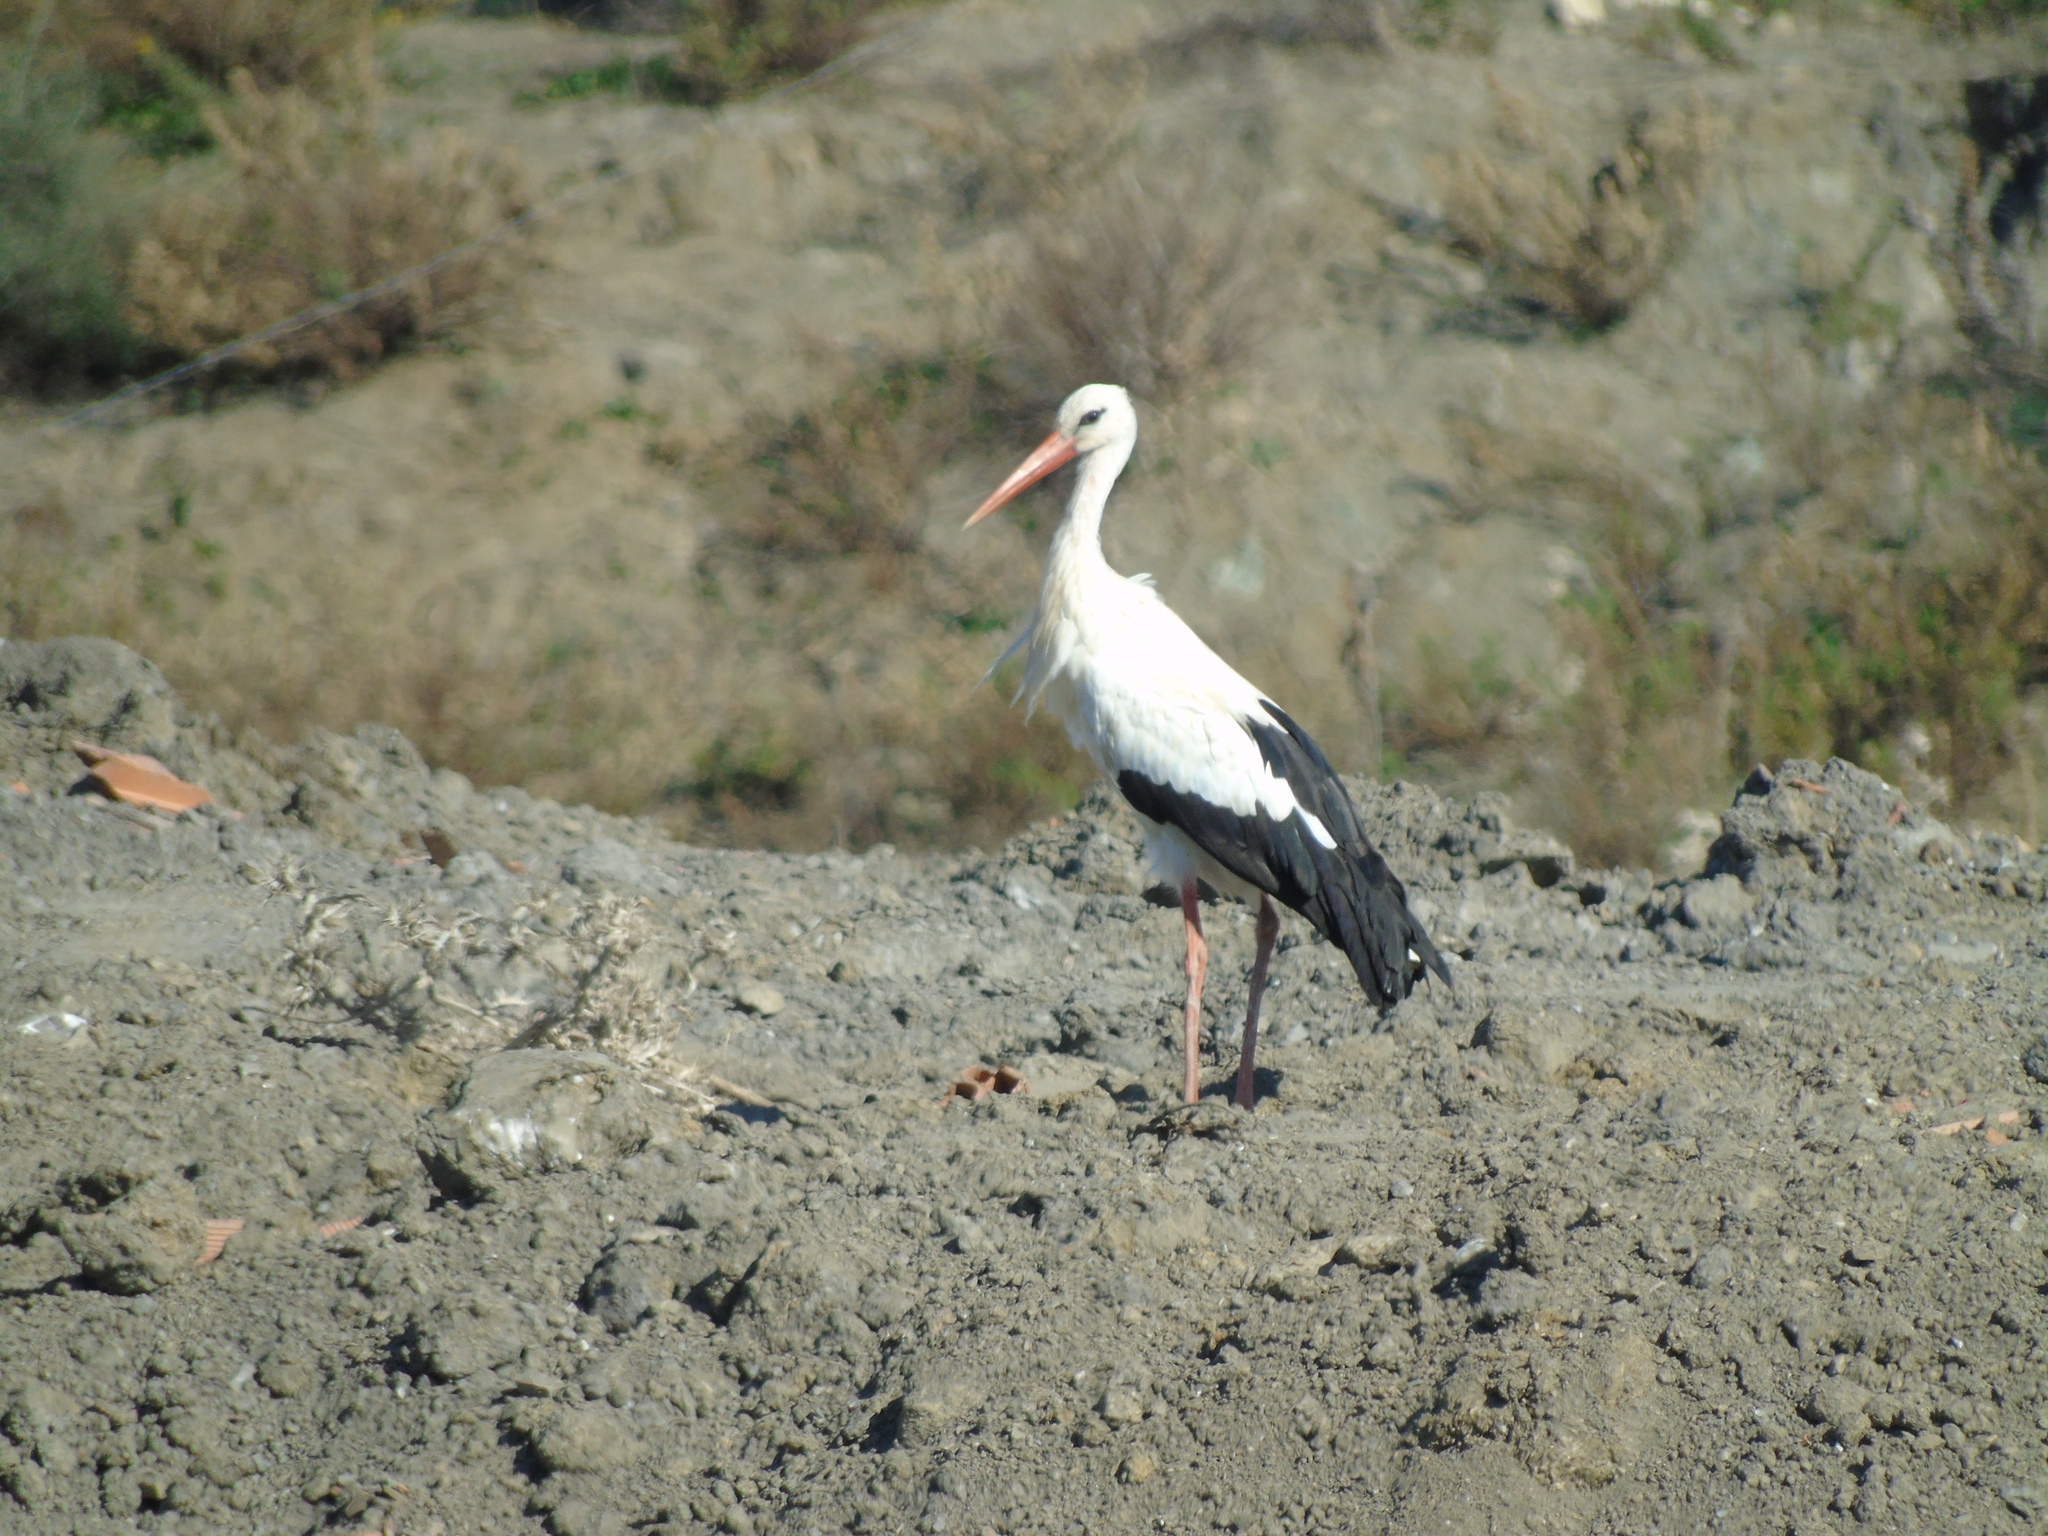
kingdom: Animalia
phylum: Chordata
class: Aves
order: Ciconiiformes
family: Ciconiidae
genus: Ciconia
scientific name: Ciconia ciconia
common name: White stork
